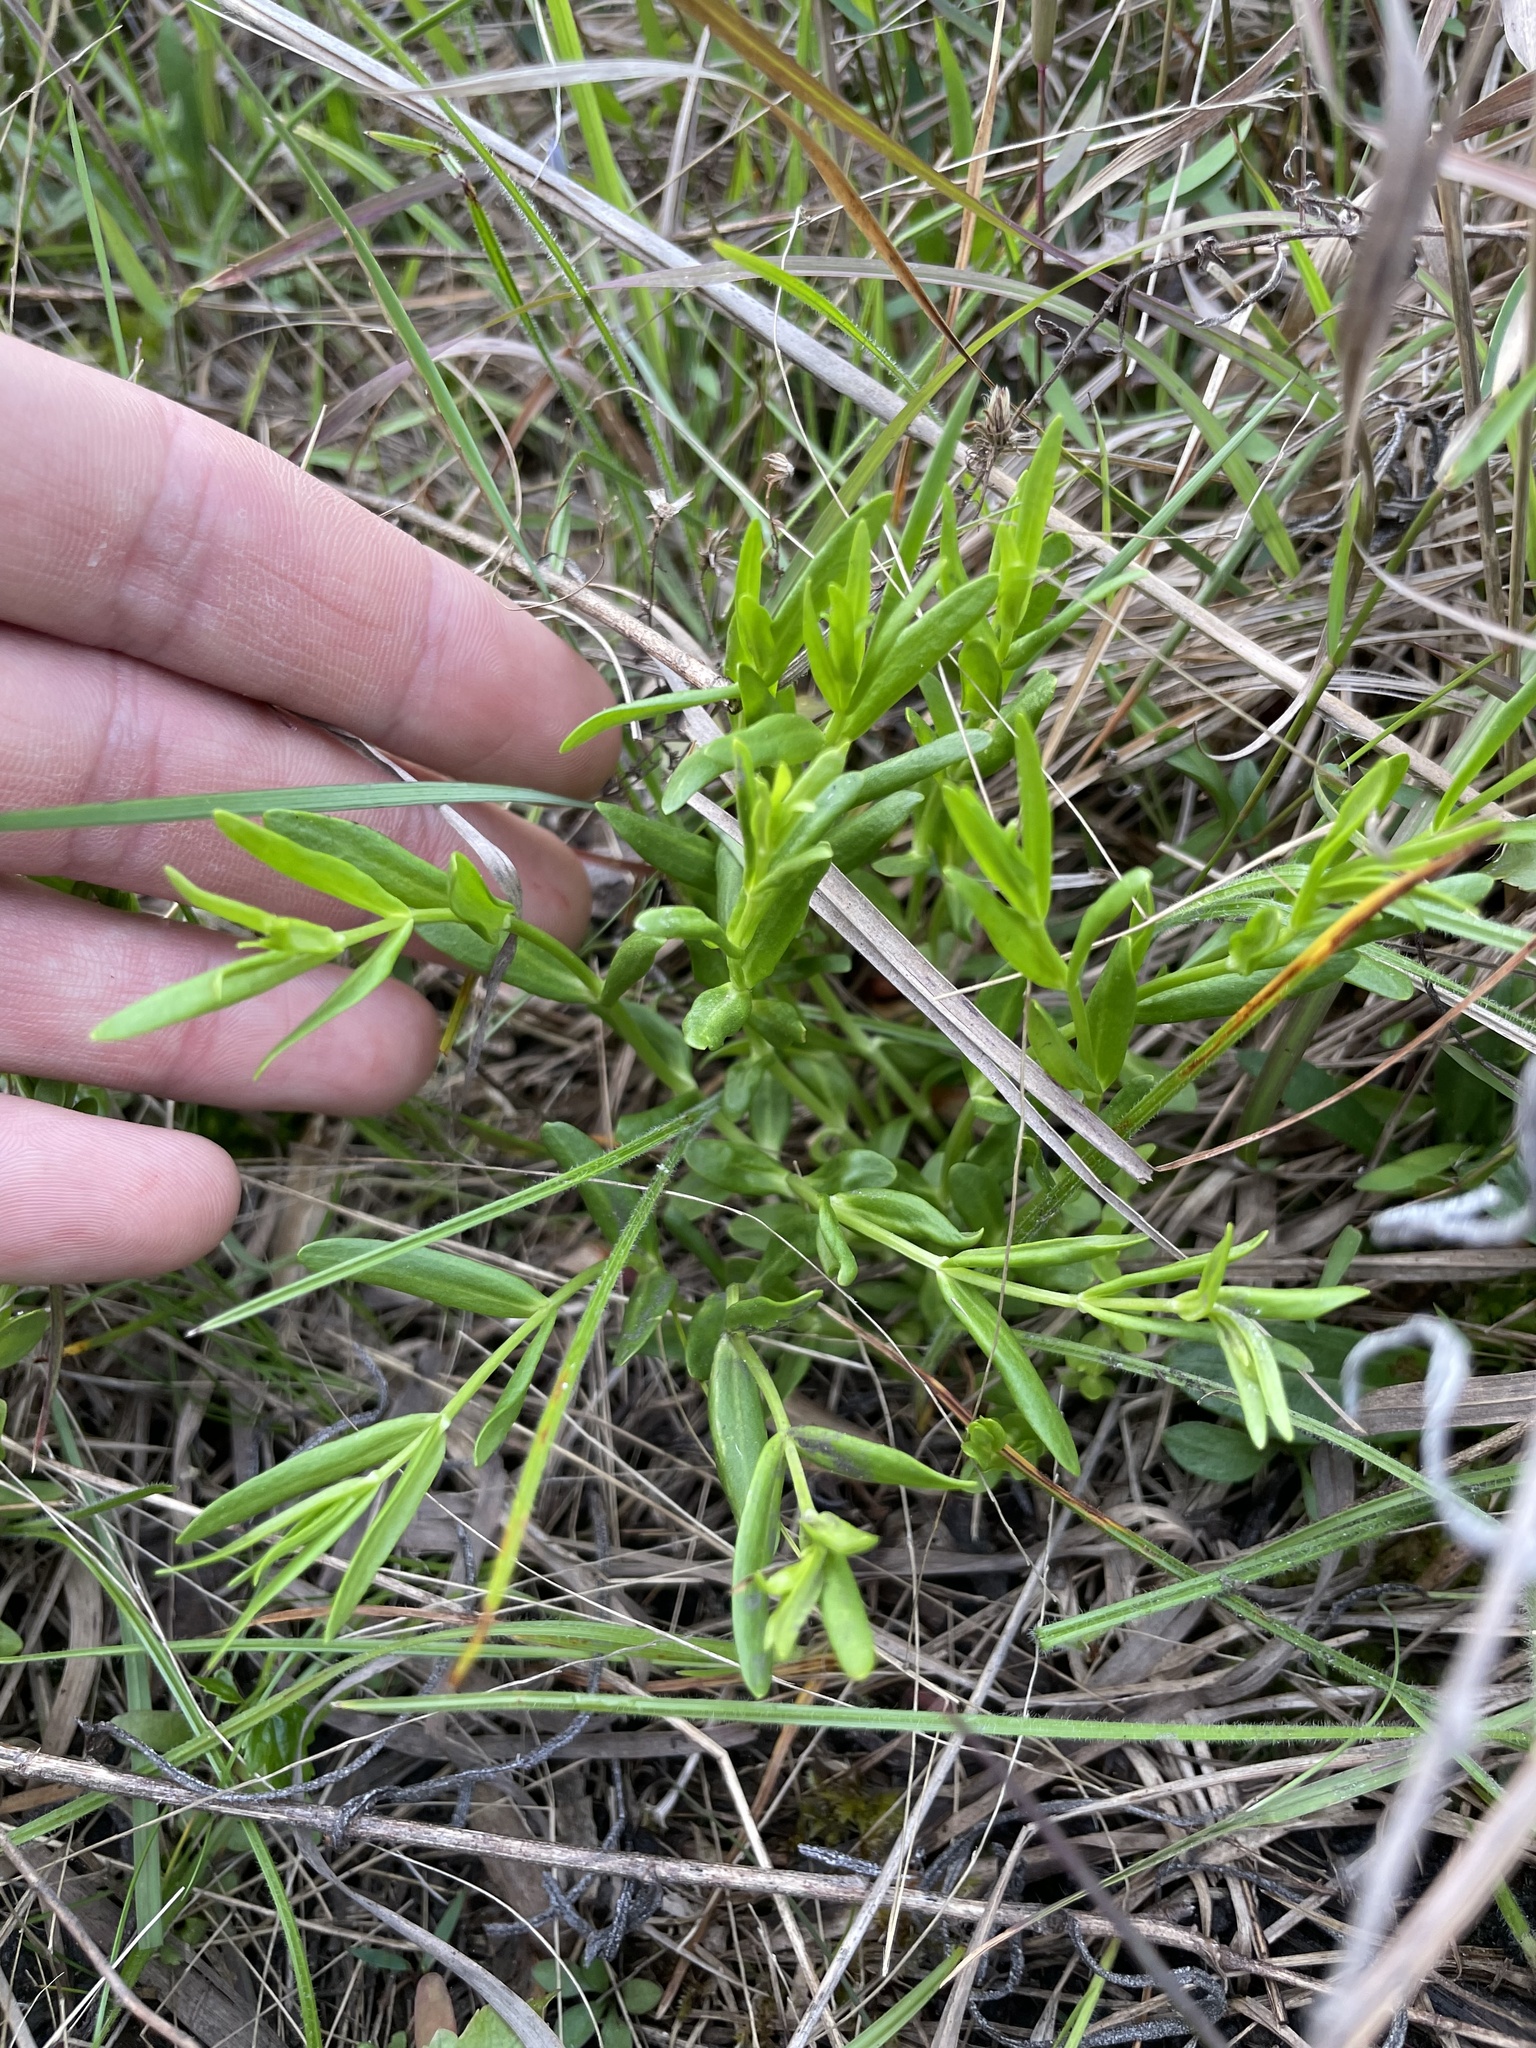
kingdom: Plantae
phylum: Tracheophyta
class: Magnoliopsida
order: Gentianales
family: Gentianaceae
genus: Sabatia
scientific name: Sabatia campanulata
